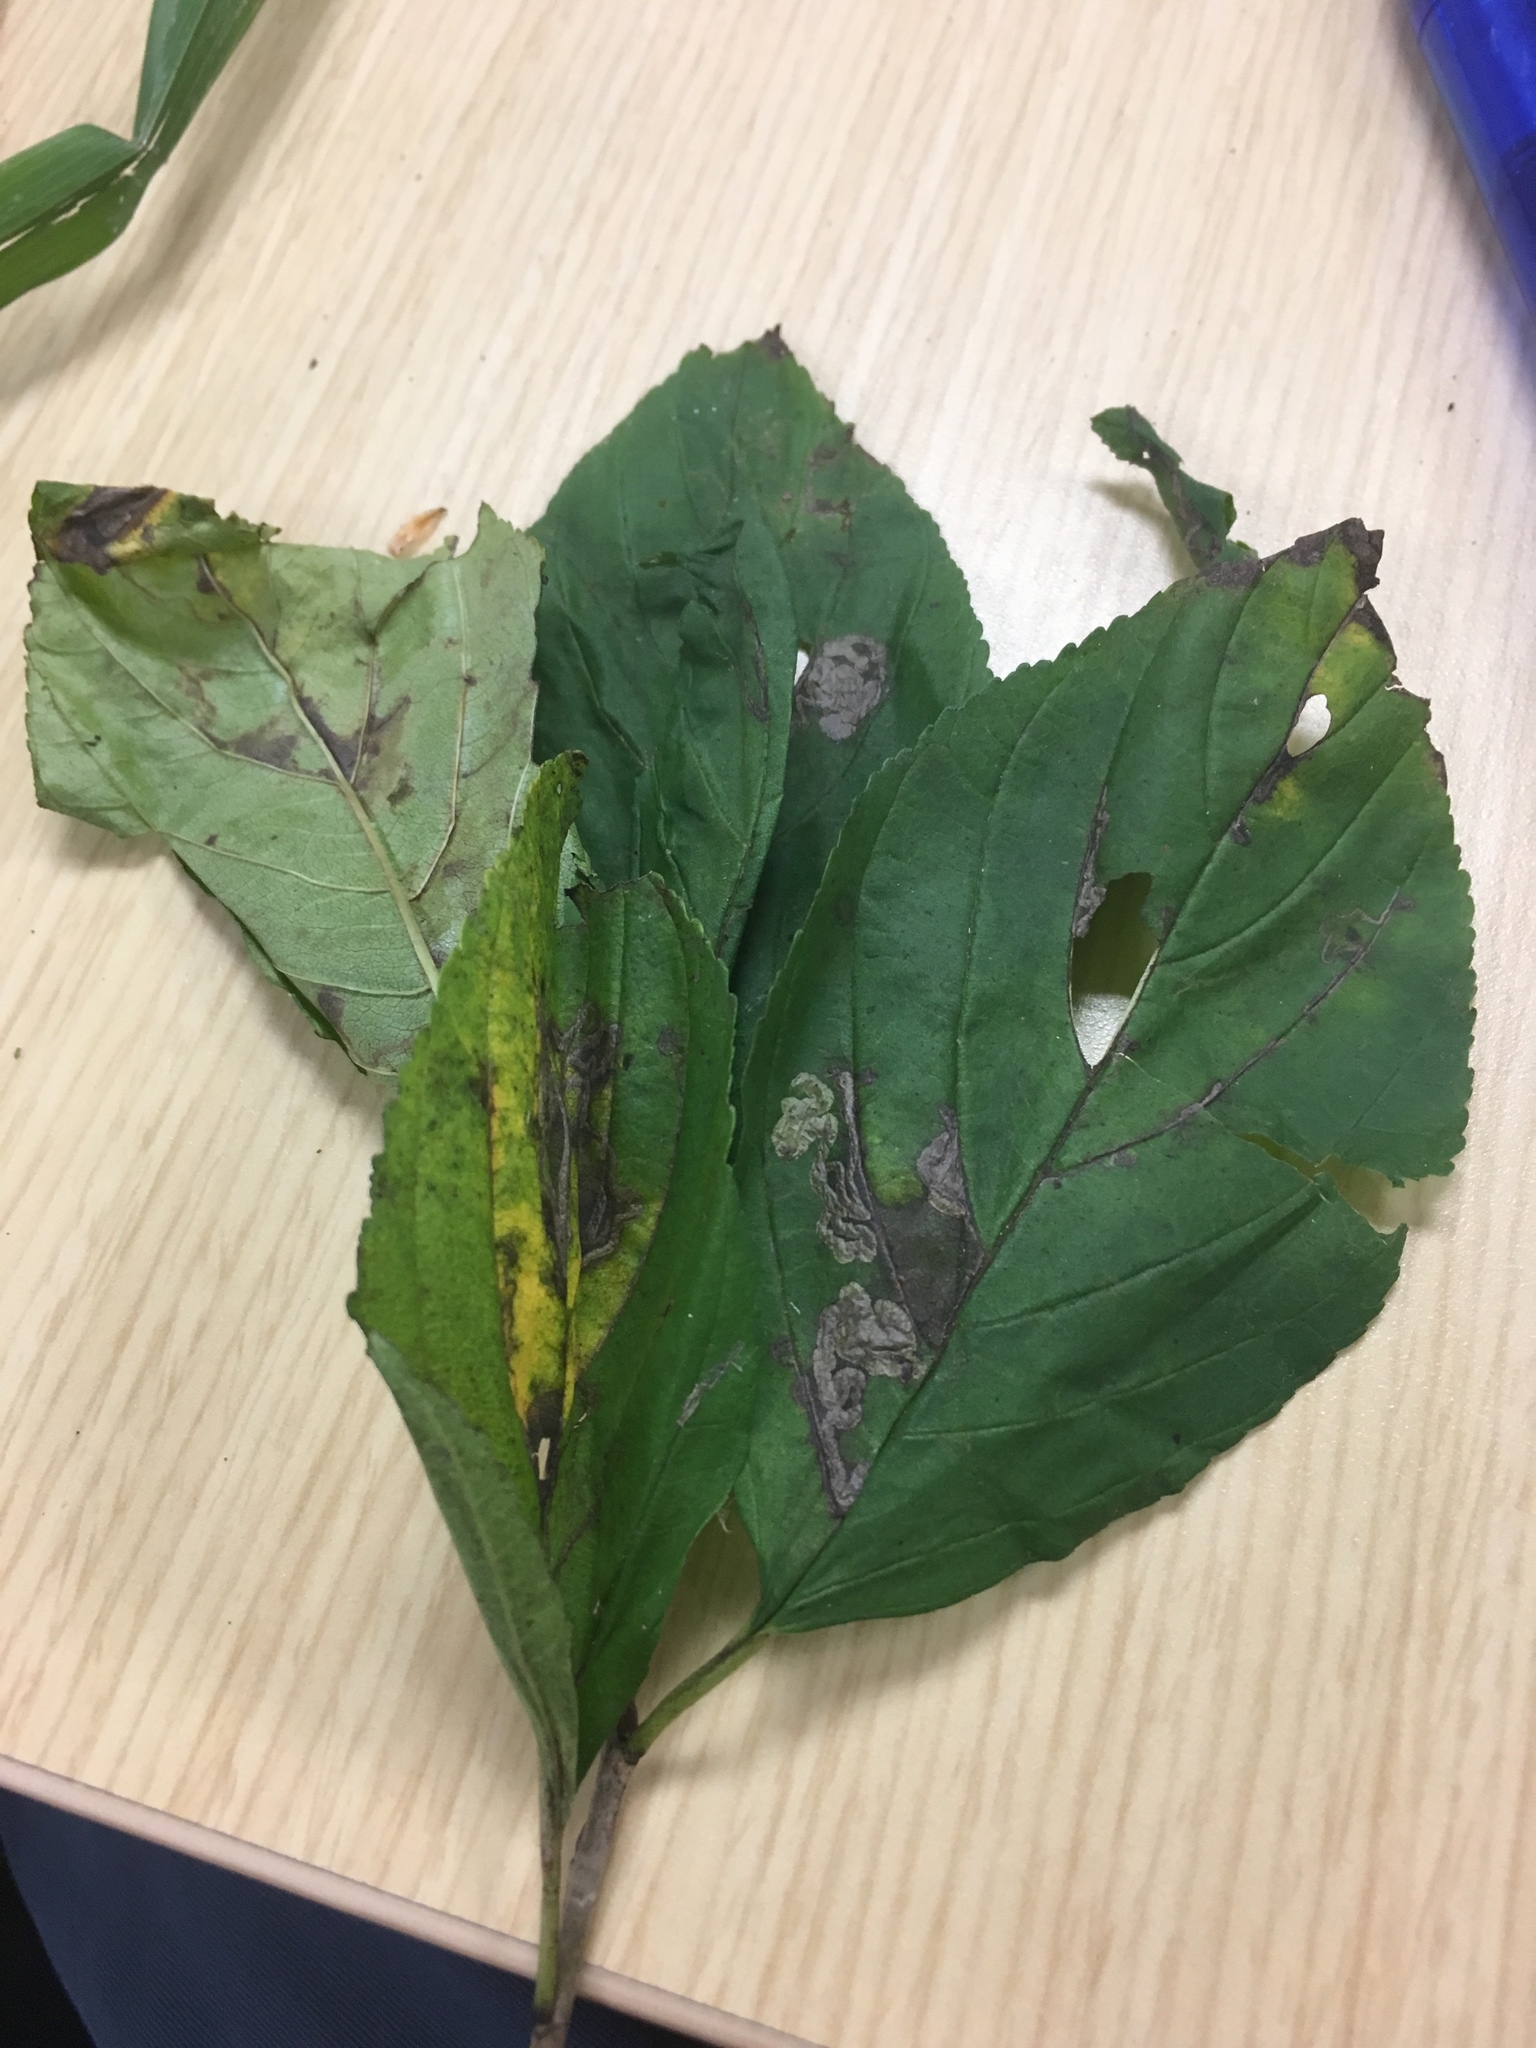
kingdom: Plantae
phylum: Tracheophyta
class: Magnoliopsida
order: Rosales
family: Rhamnaceae
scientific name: Rhamnaceae
